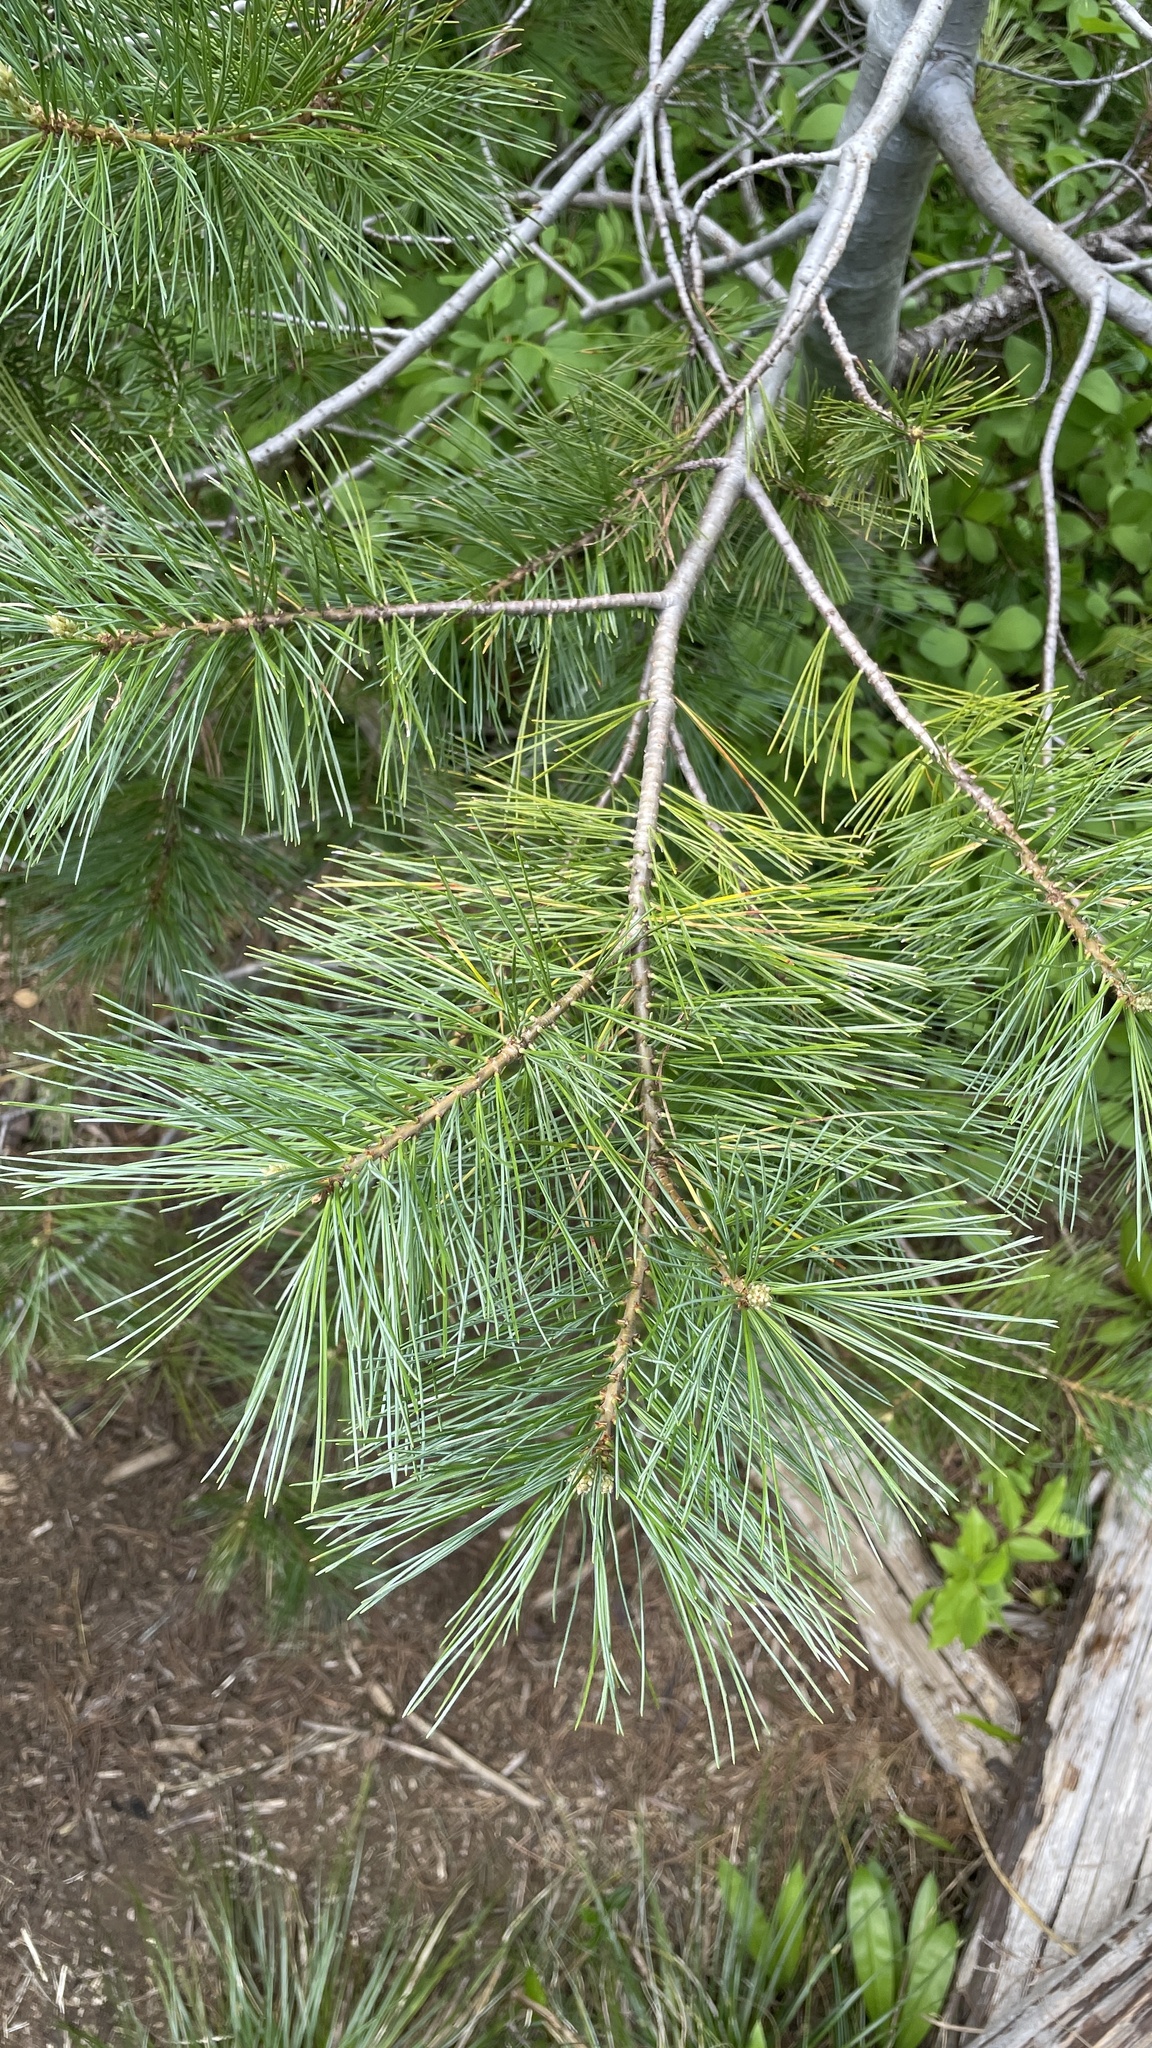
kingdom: Plantae
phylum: Tracheophyta
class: Pinopsida
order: Pinales
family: Pinaceae
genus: Pinus
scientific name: Pinus monticola
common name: Western white pine
